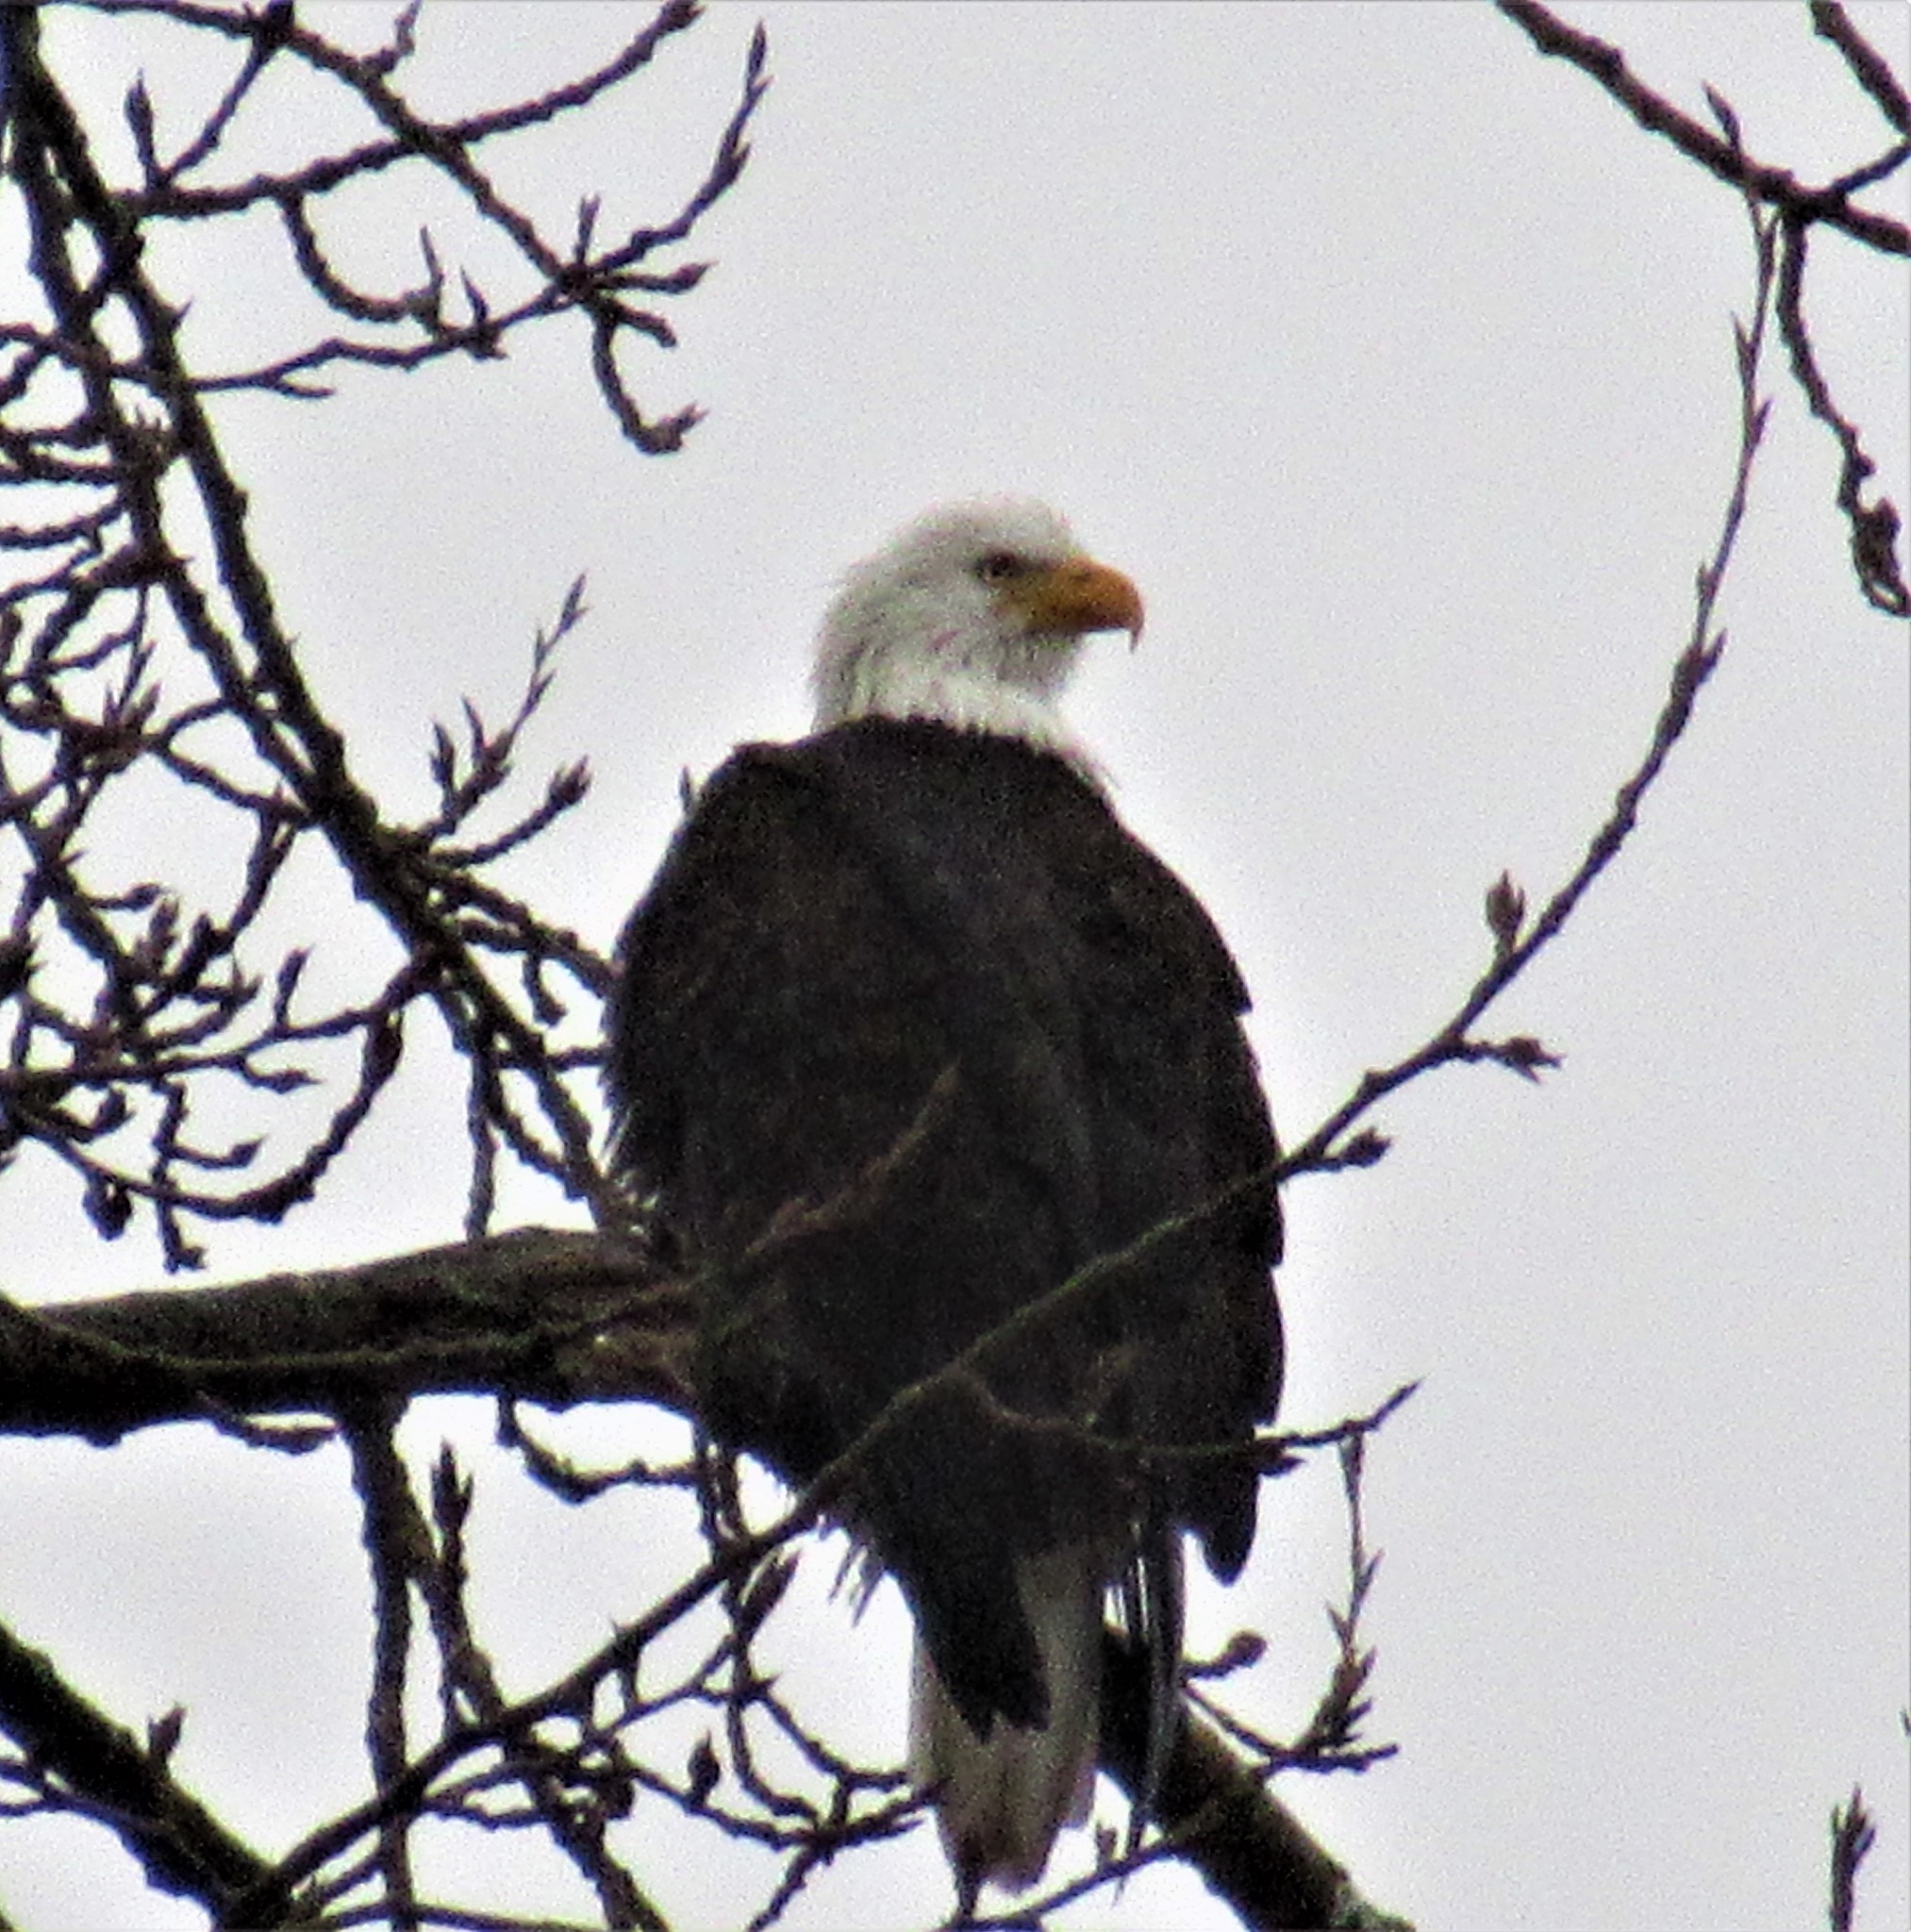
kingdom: Animalia
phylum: Chordata
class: Aves
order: Accipitriformes
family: Accipitridae
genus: Haliaeetus
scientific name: Haliaeetus leucocephalus
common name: Bald eagle
